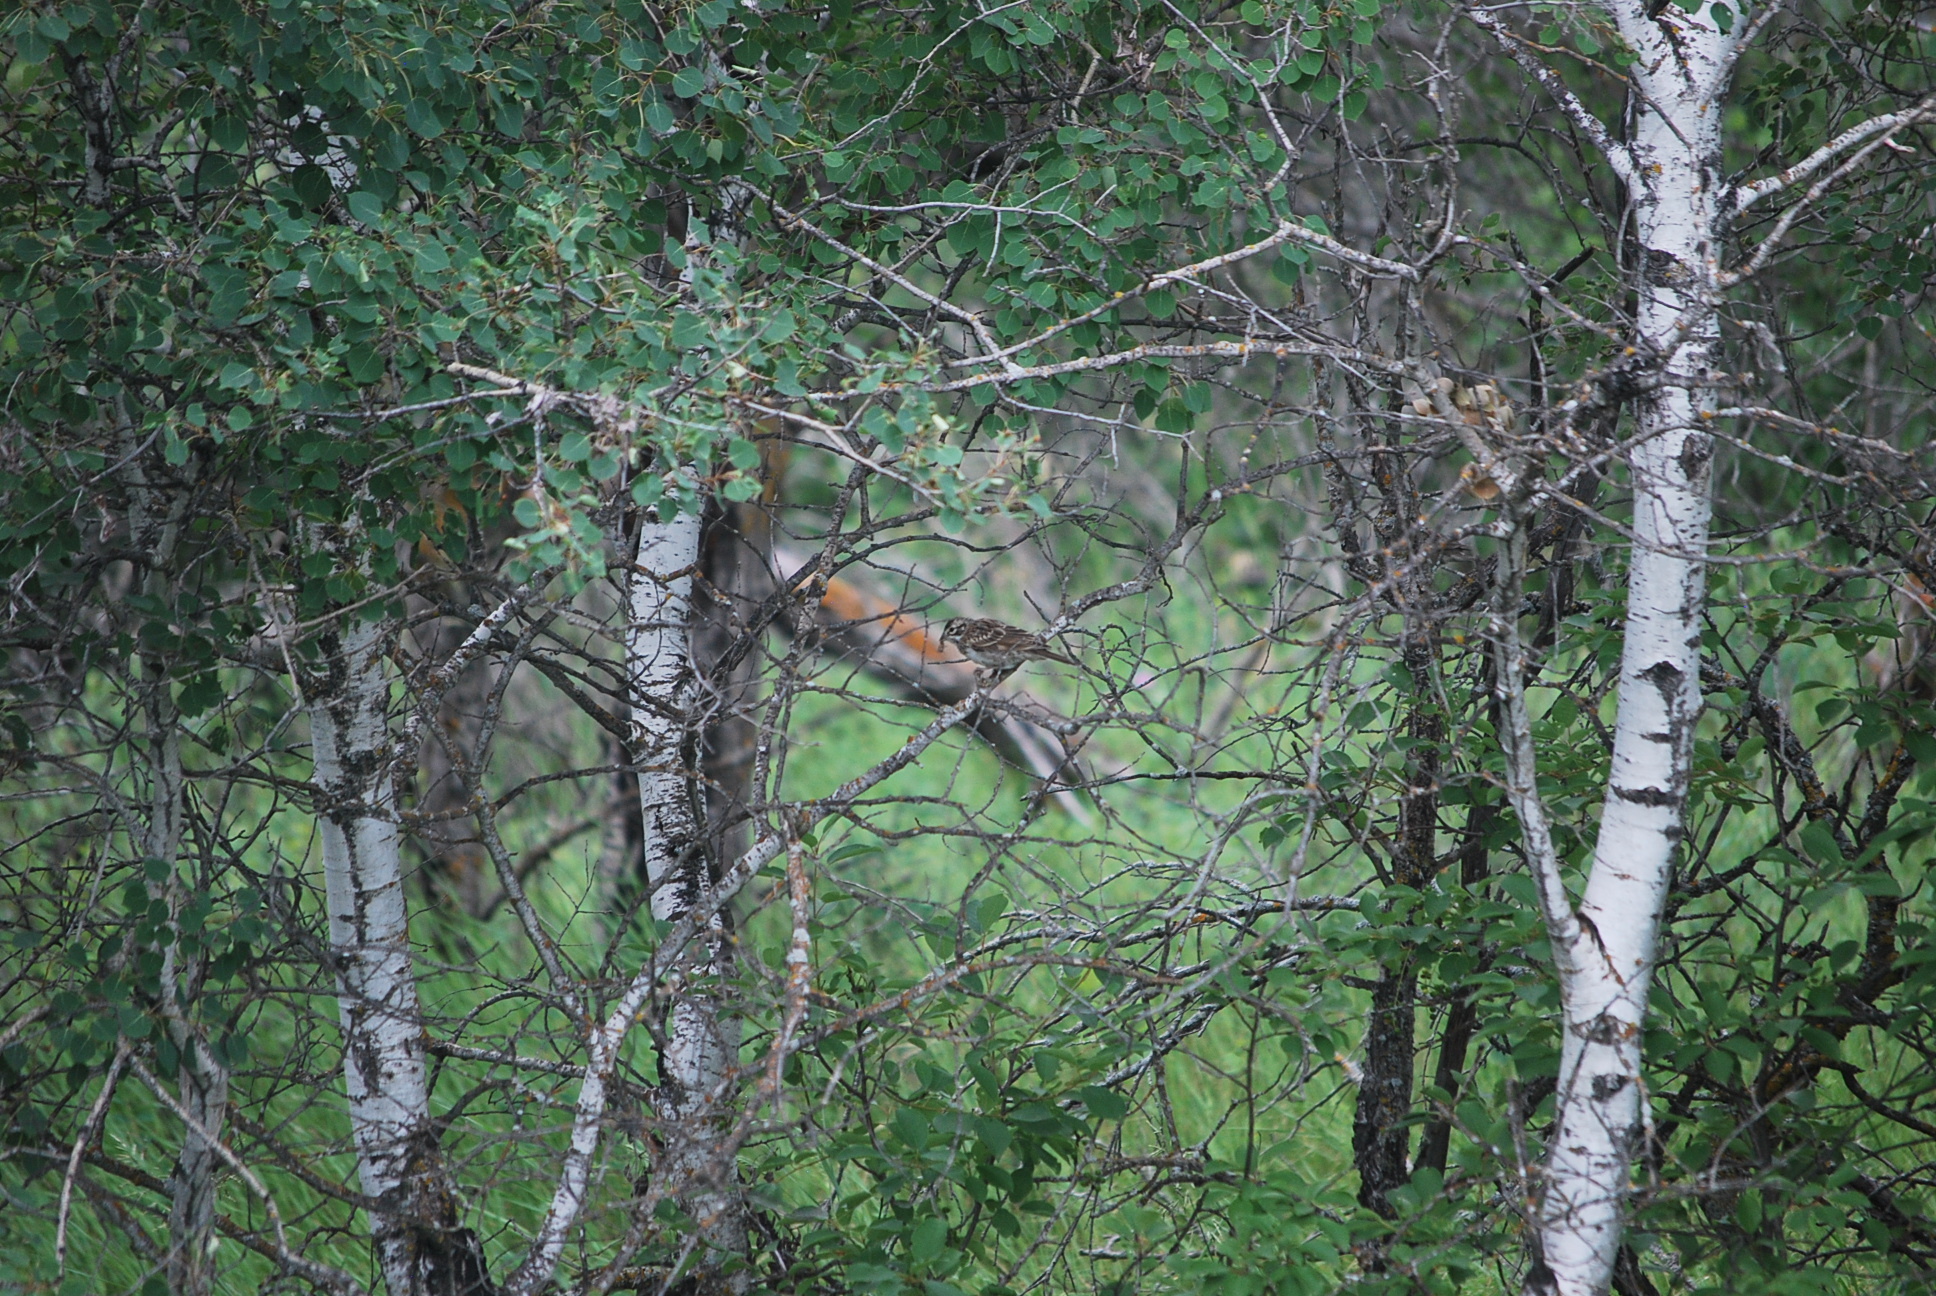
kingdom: Animalia
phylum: Chordata
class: Aves
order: Passeriformes
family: Passerellidae
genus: Chondestes
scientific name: Chondestes grammacus
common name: Lark sparrow
